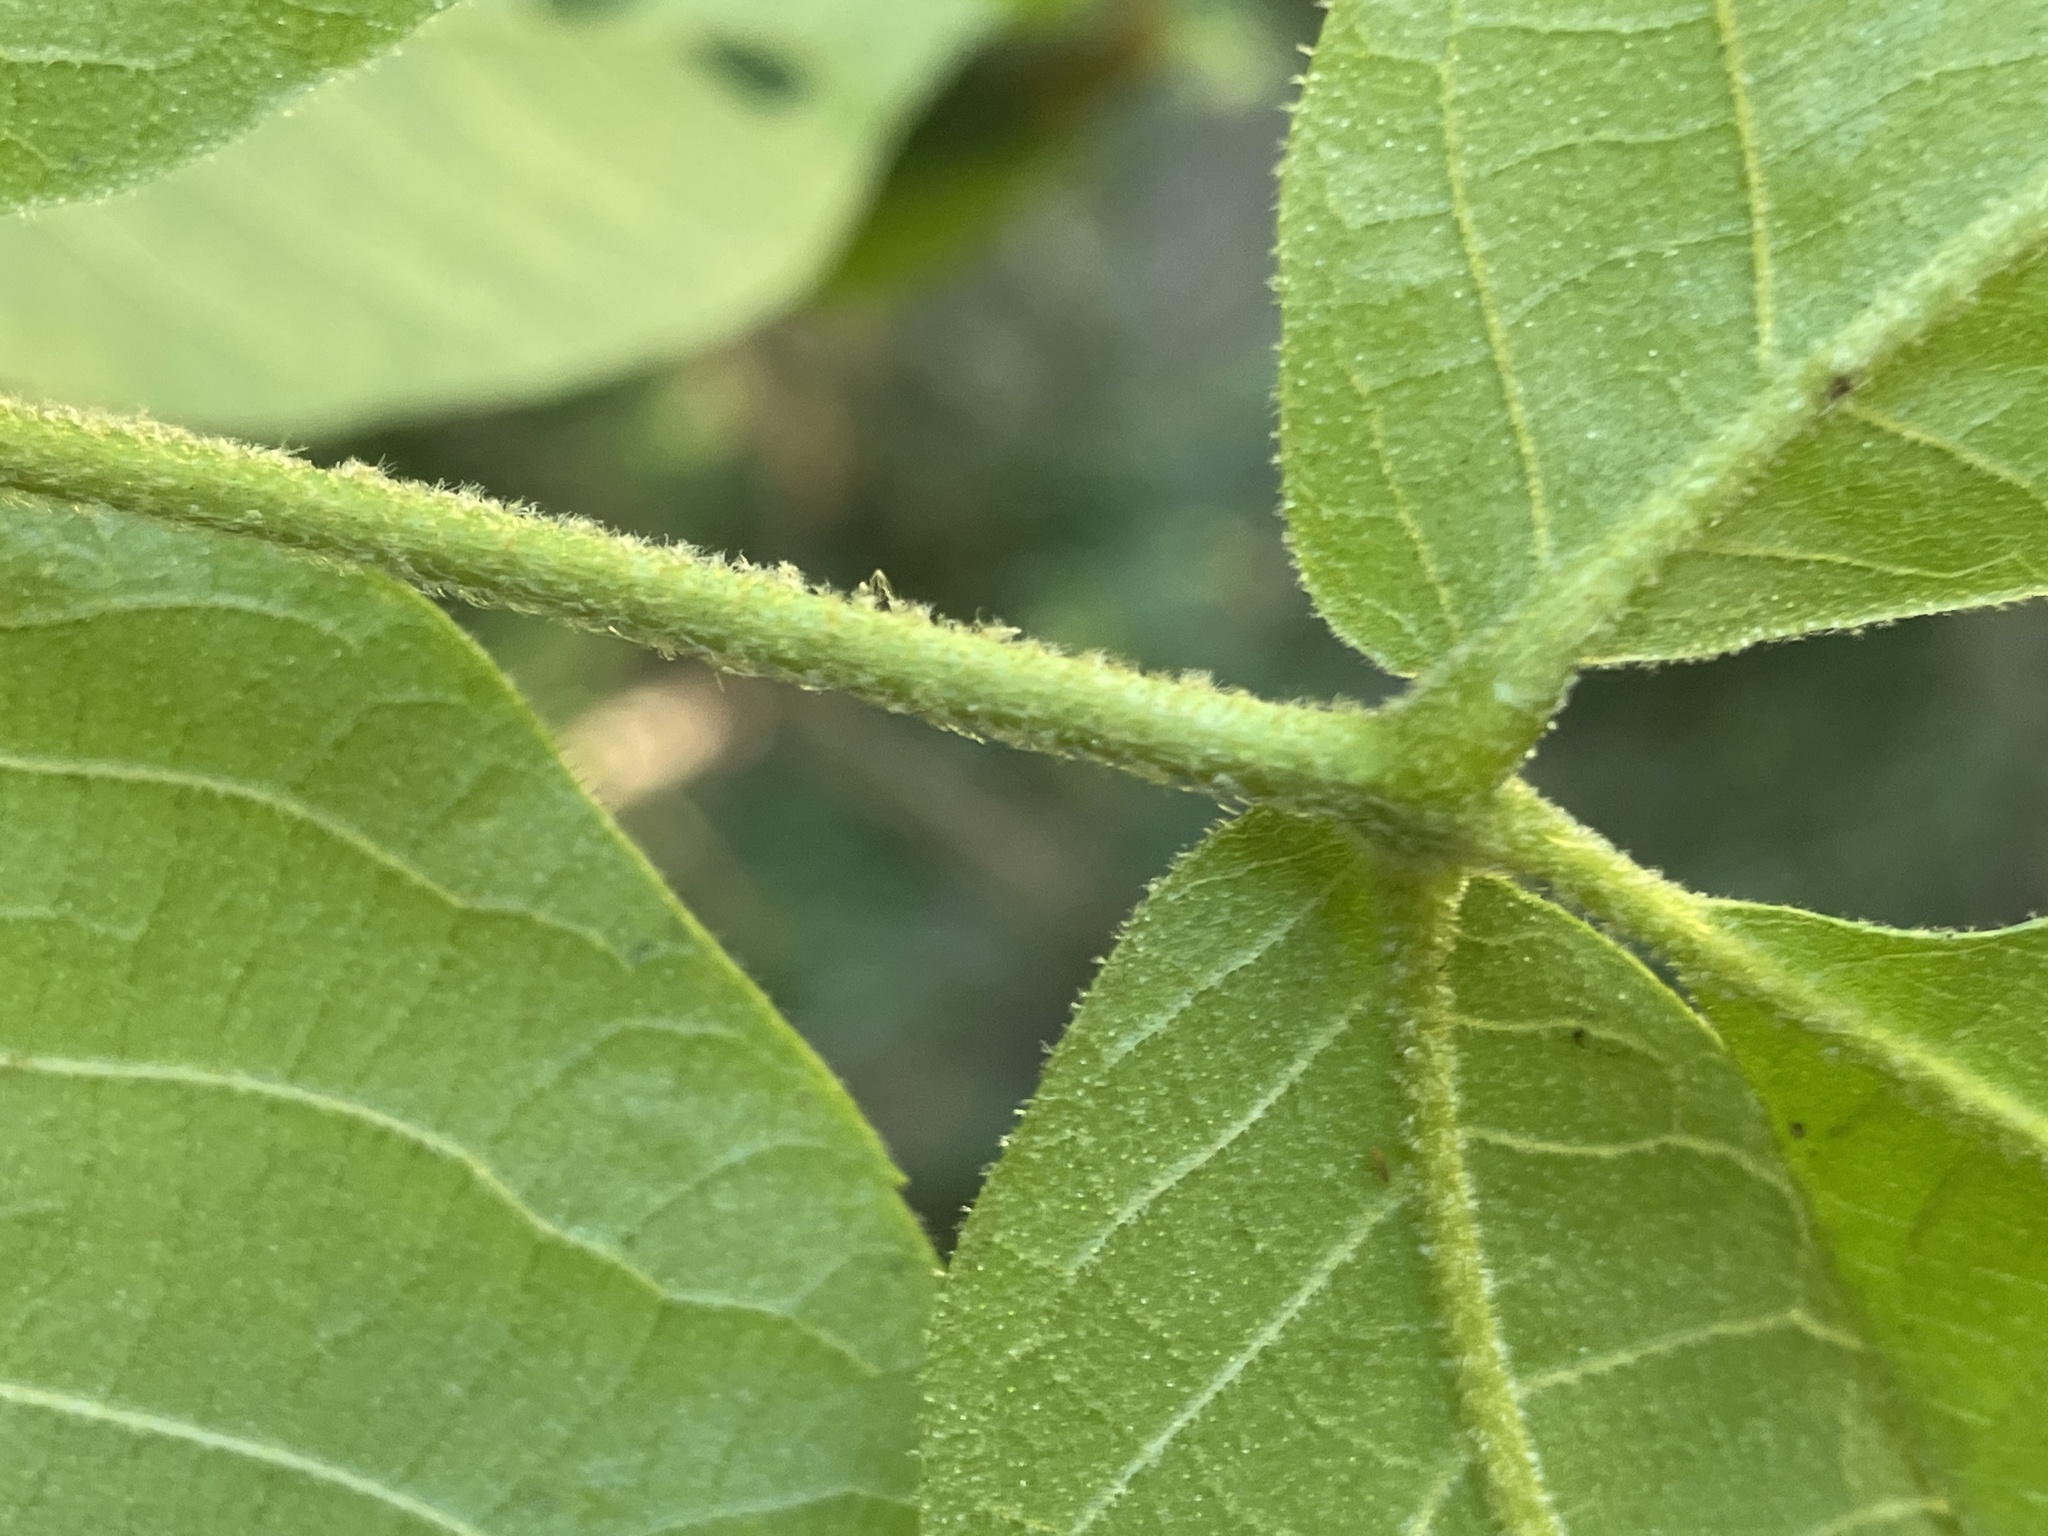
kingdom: Animalia
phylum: Arthropoda
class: Insecta
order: Diptera
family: Cecidomyiidae
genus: Caryomyia
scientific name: Caryomyia urnula
